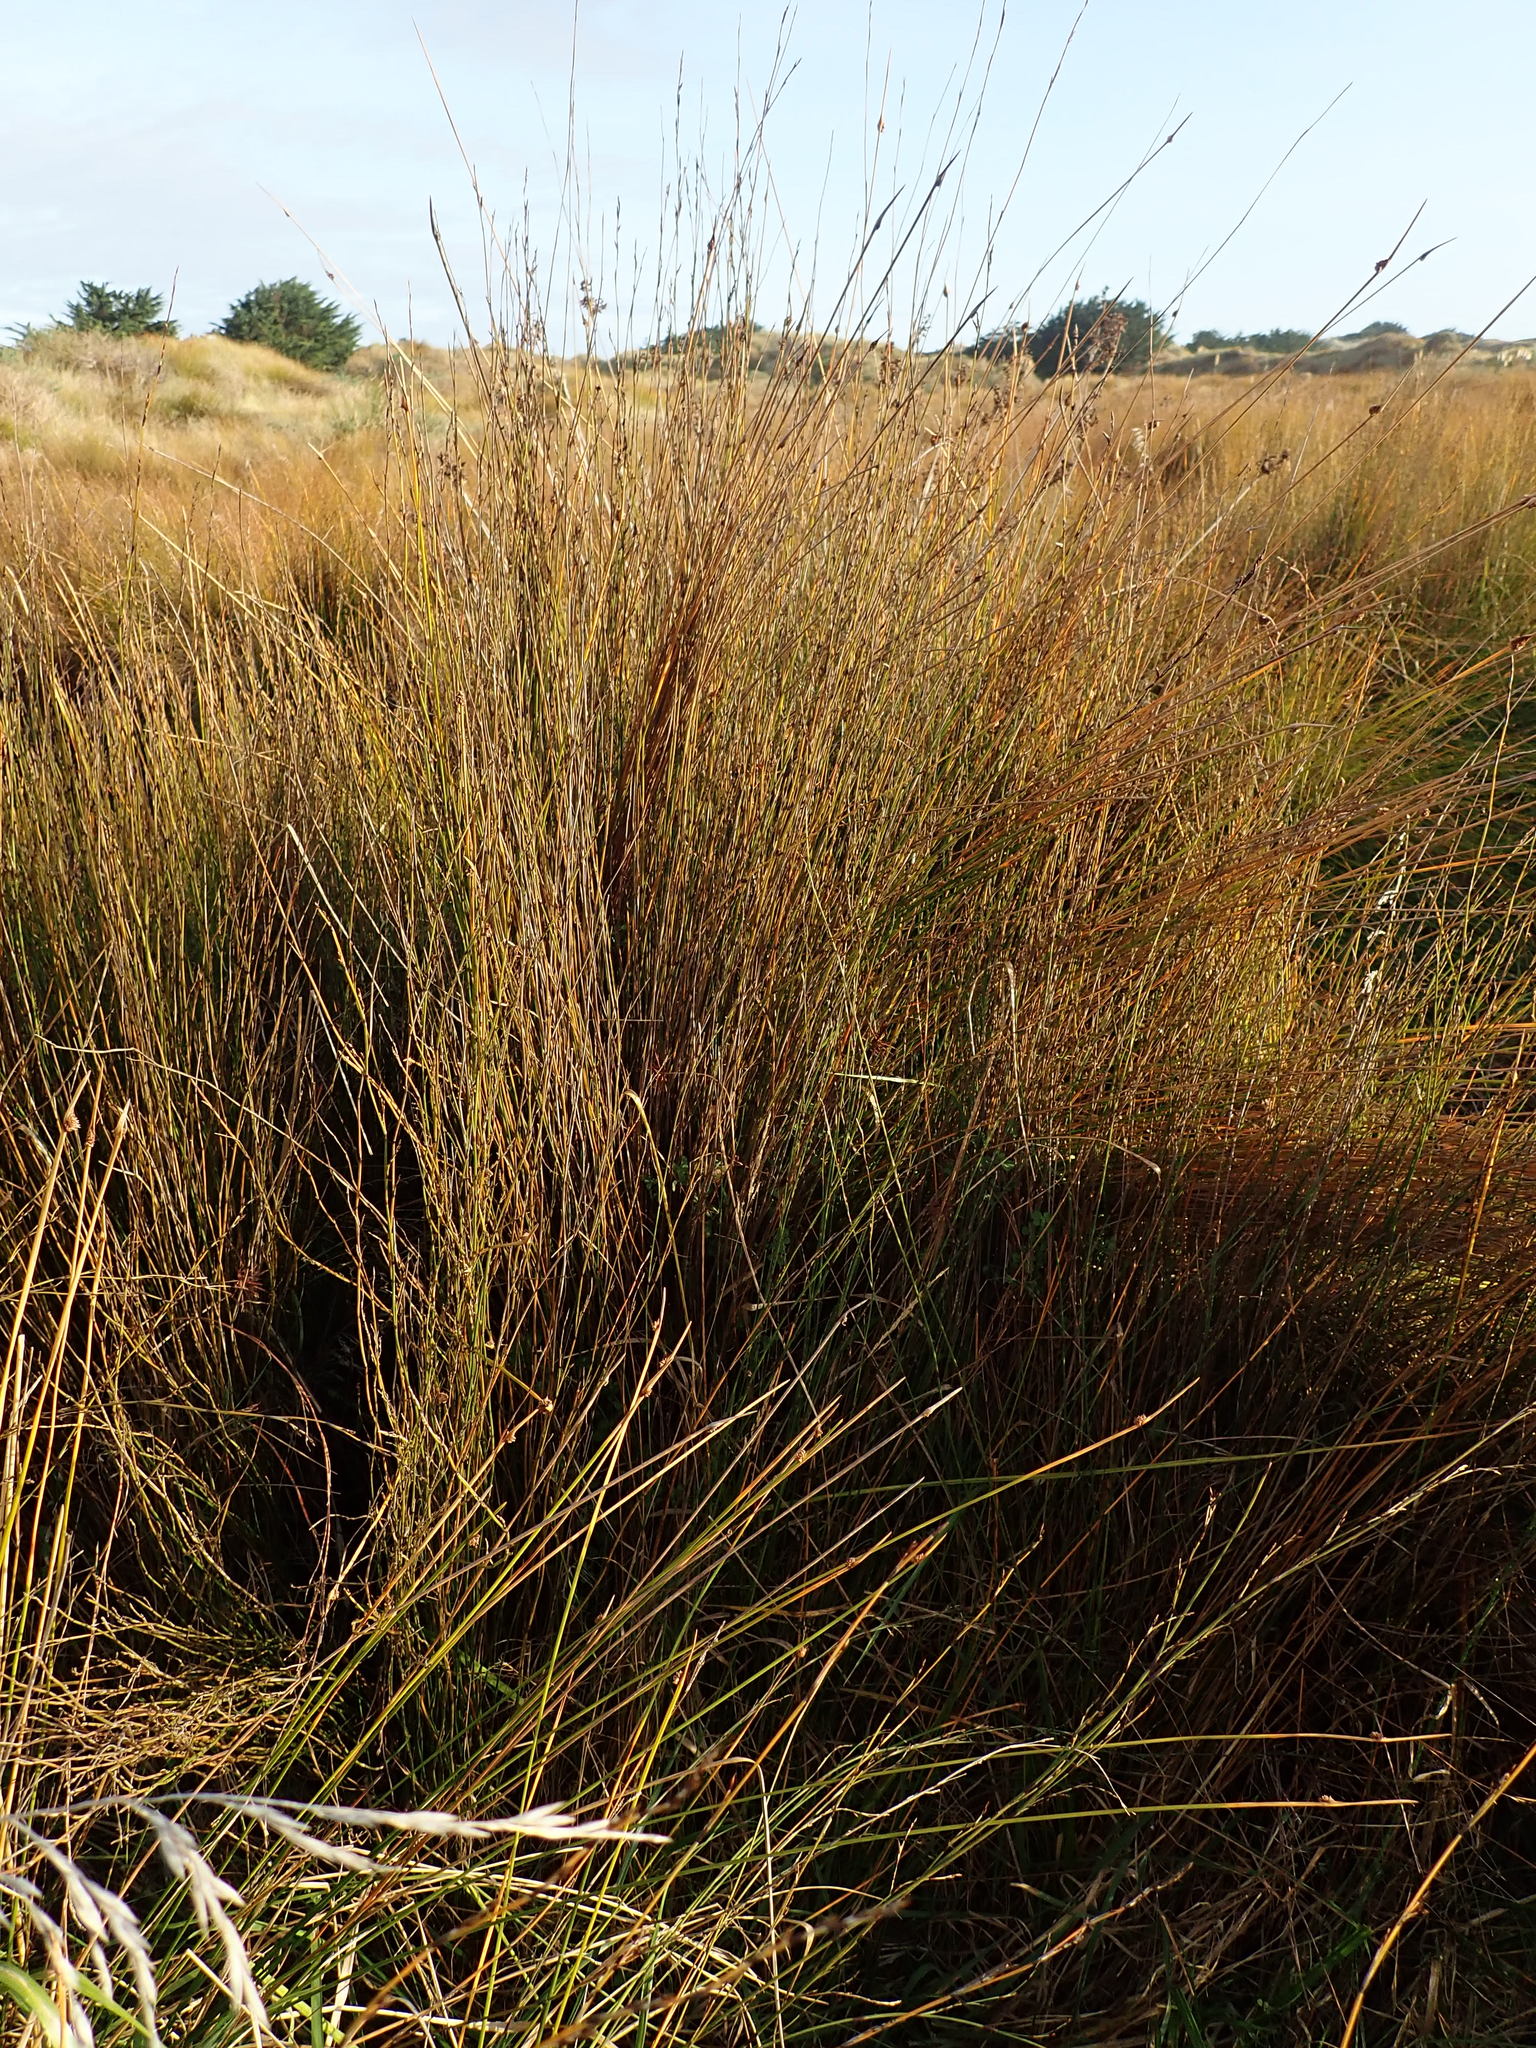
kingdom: Plantae
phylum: Tracheophyta
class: Liliopsida
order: Poales
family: Restionaceae
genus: Apodasmia
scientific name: Apodasmia similis
